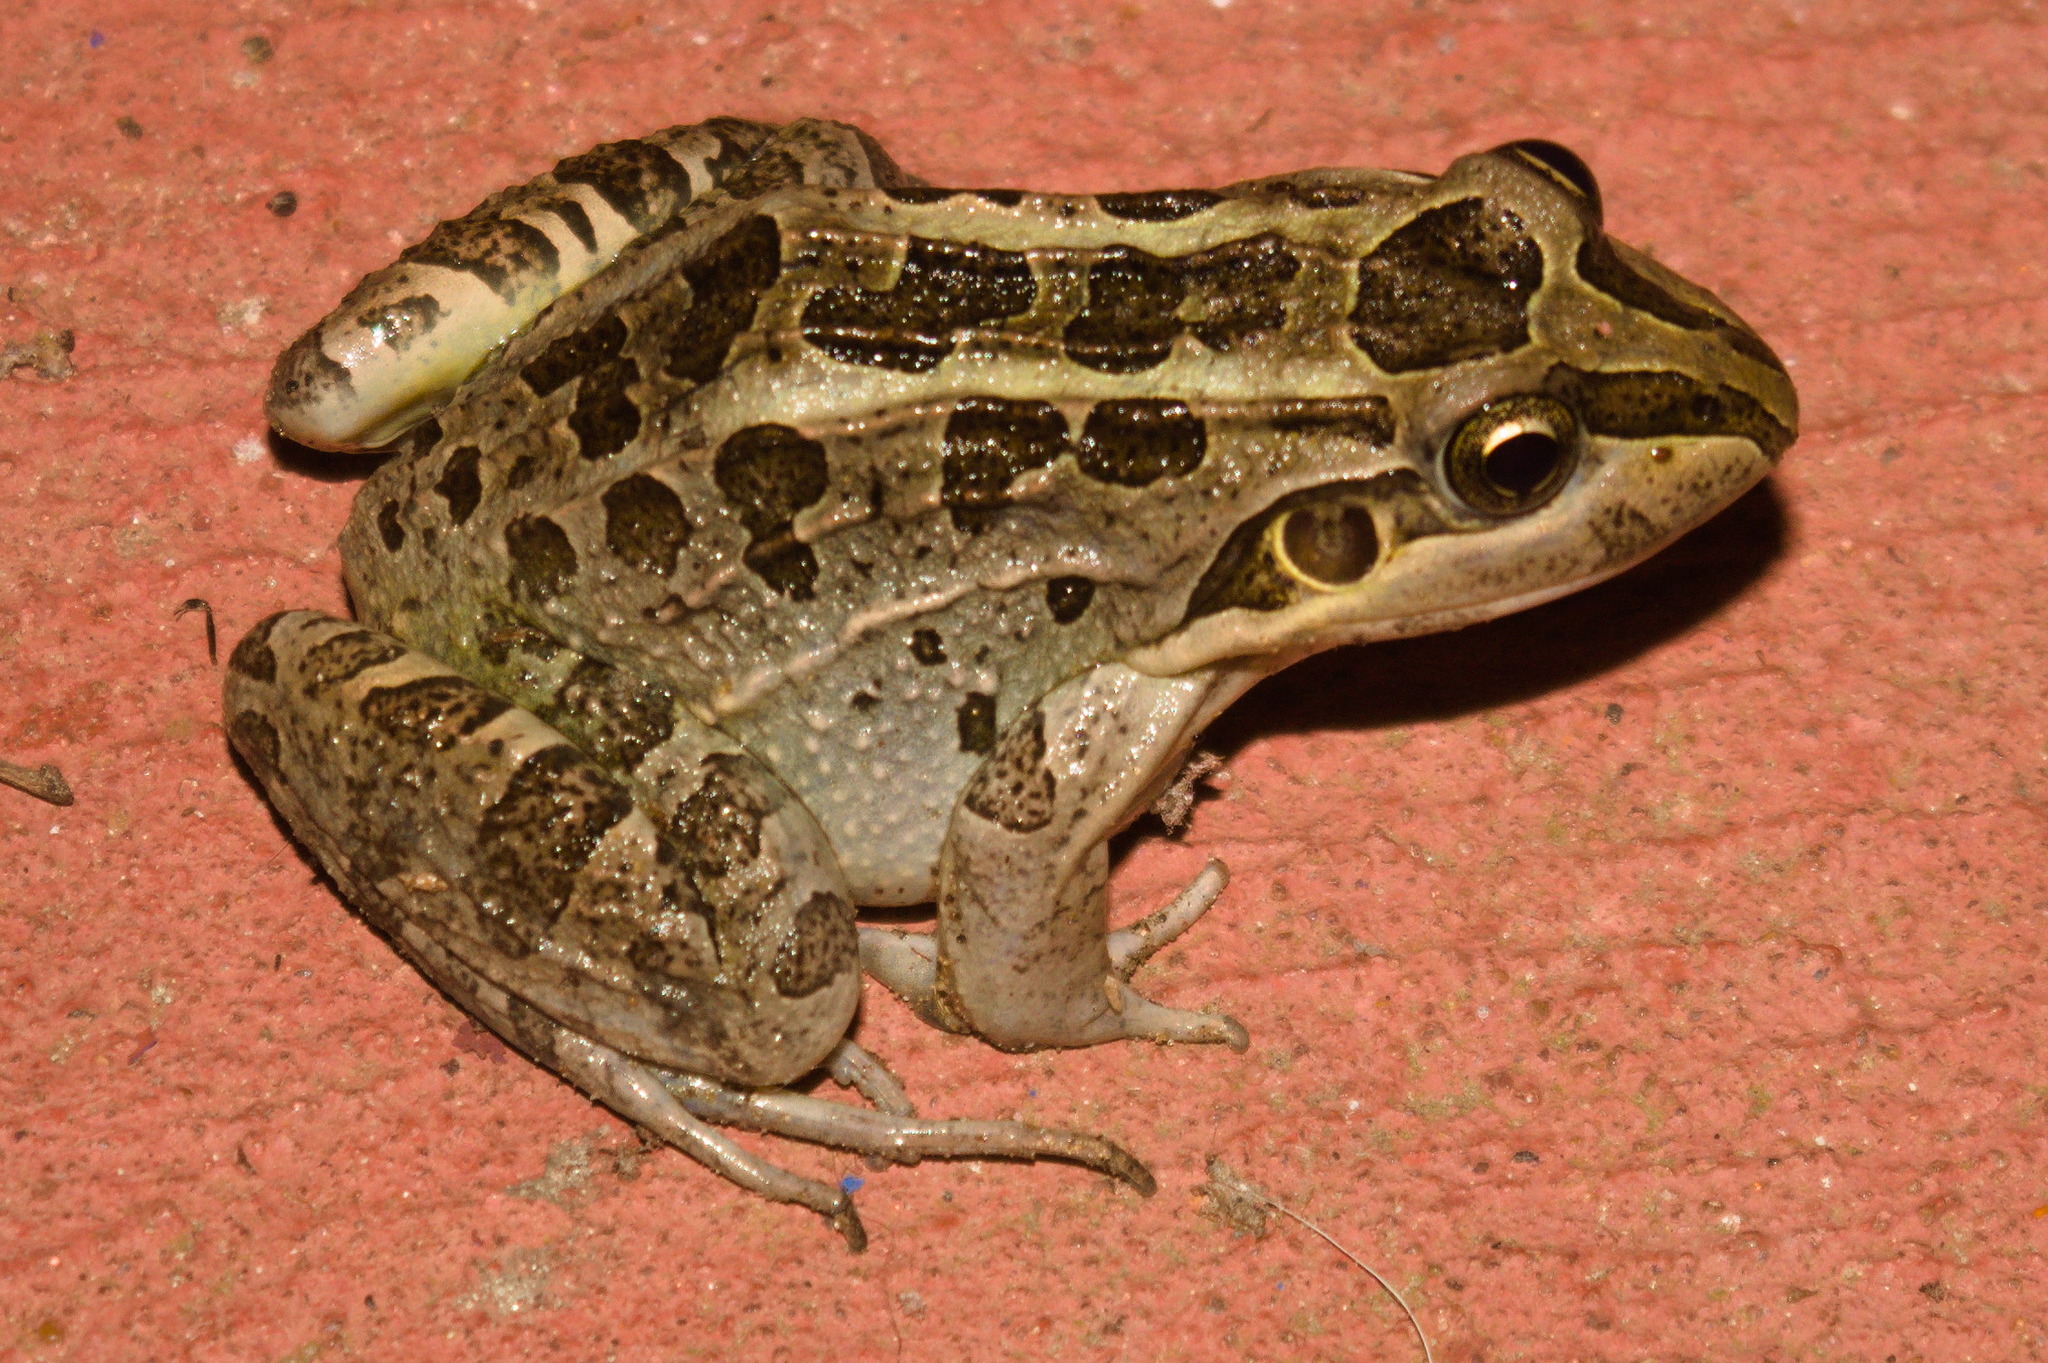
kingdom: Animalia
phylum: Chordata
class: Amphibia
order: Anura
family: Leptodactylidae
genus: Leptodactylus
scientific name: Leptodactylus luctator
